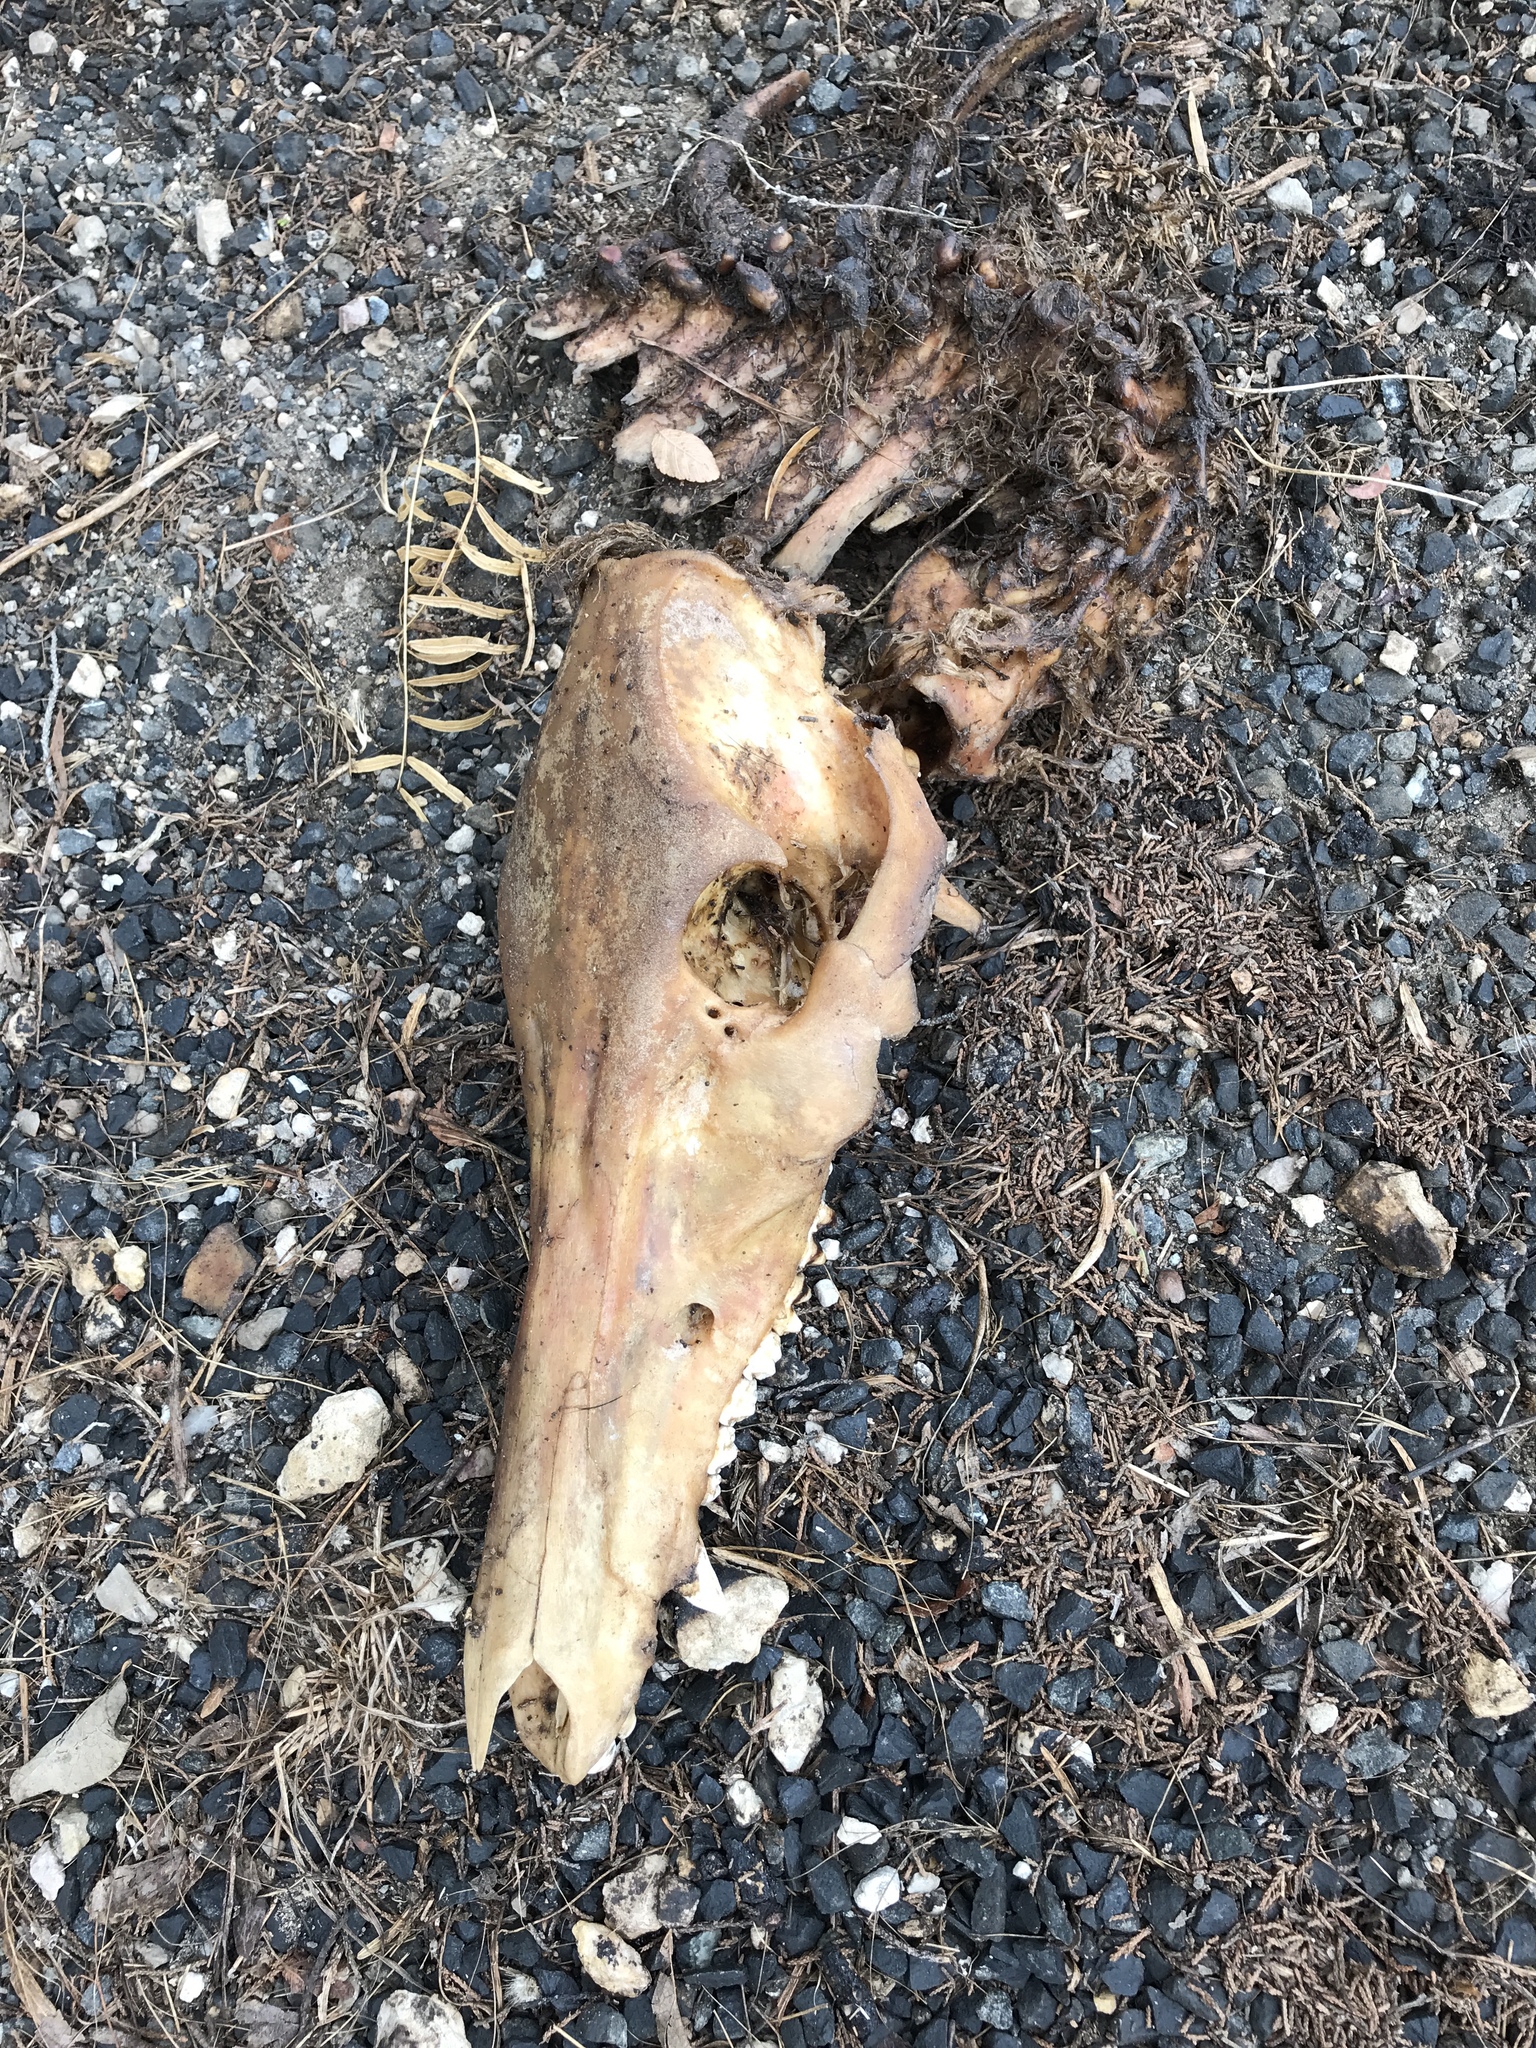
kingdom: Animalia
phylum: Chordata
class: Mammalia
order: Artiodactyla
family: Suidae
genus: Sus
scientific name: Sus scrofa
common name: Wild boar
